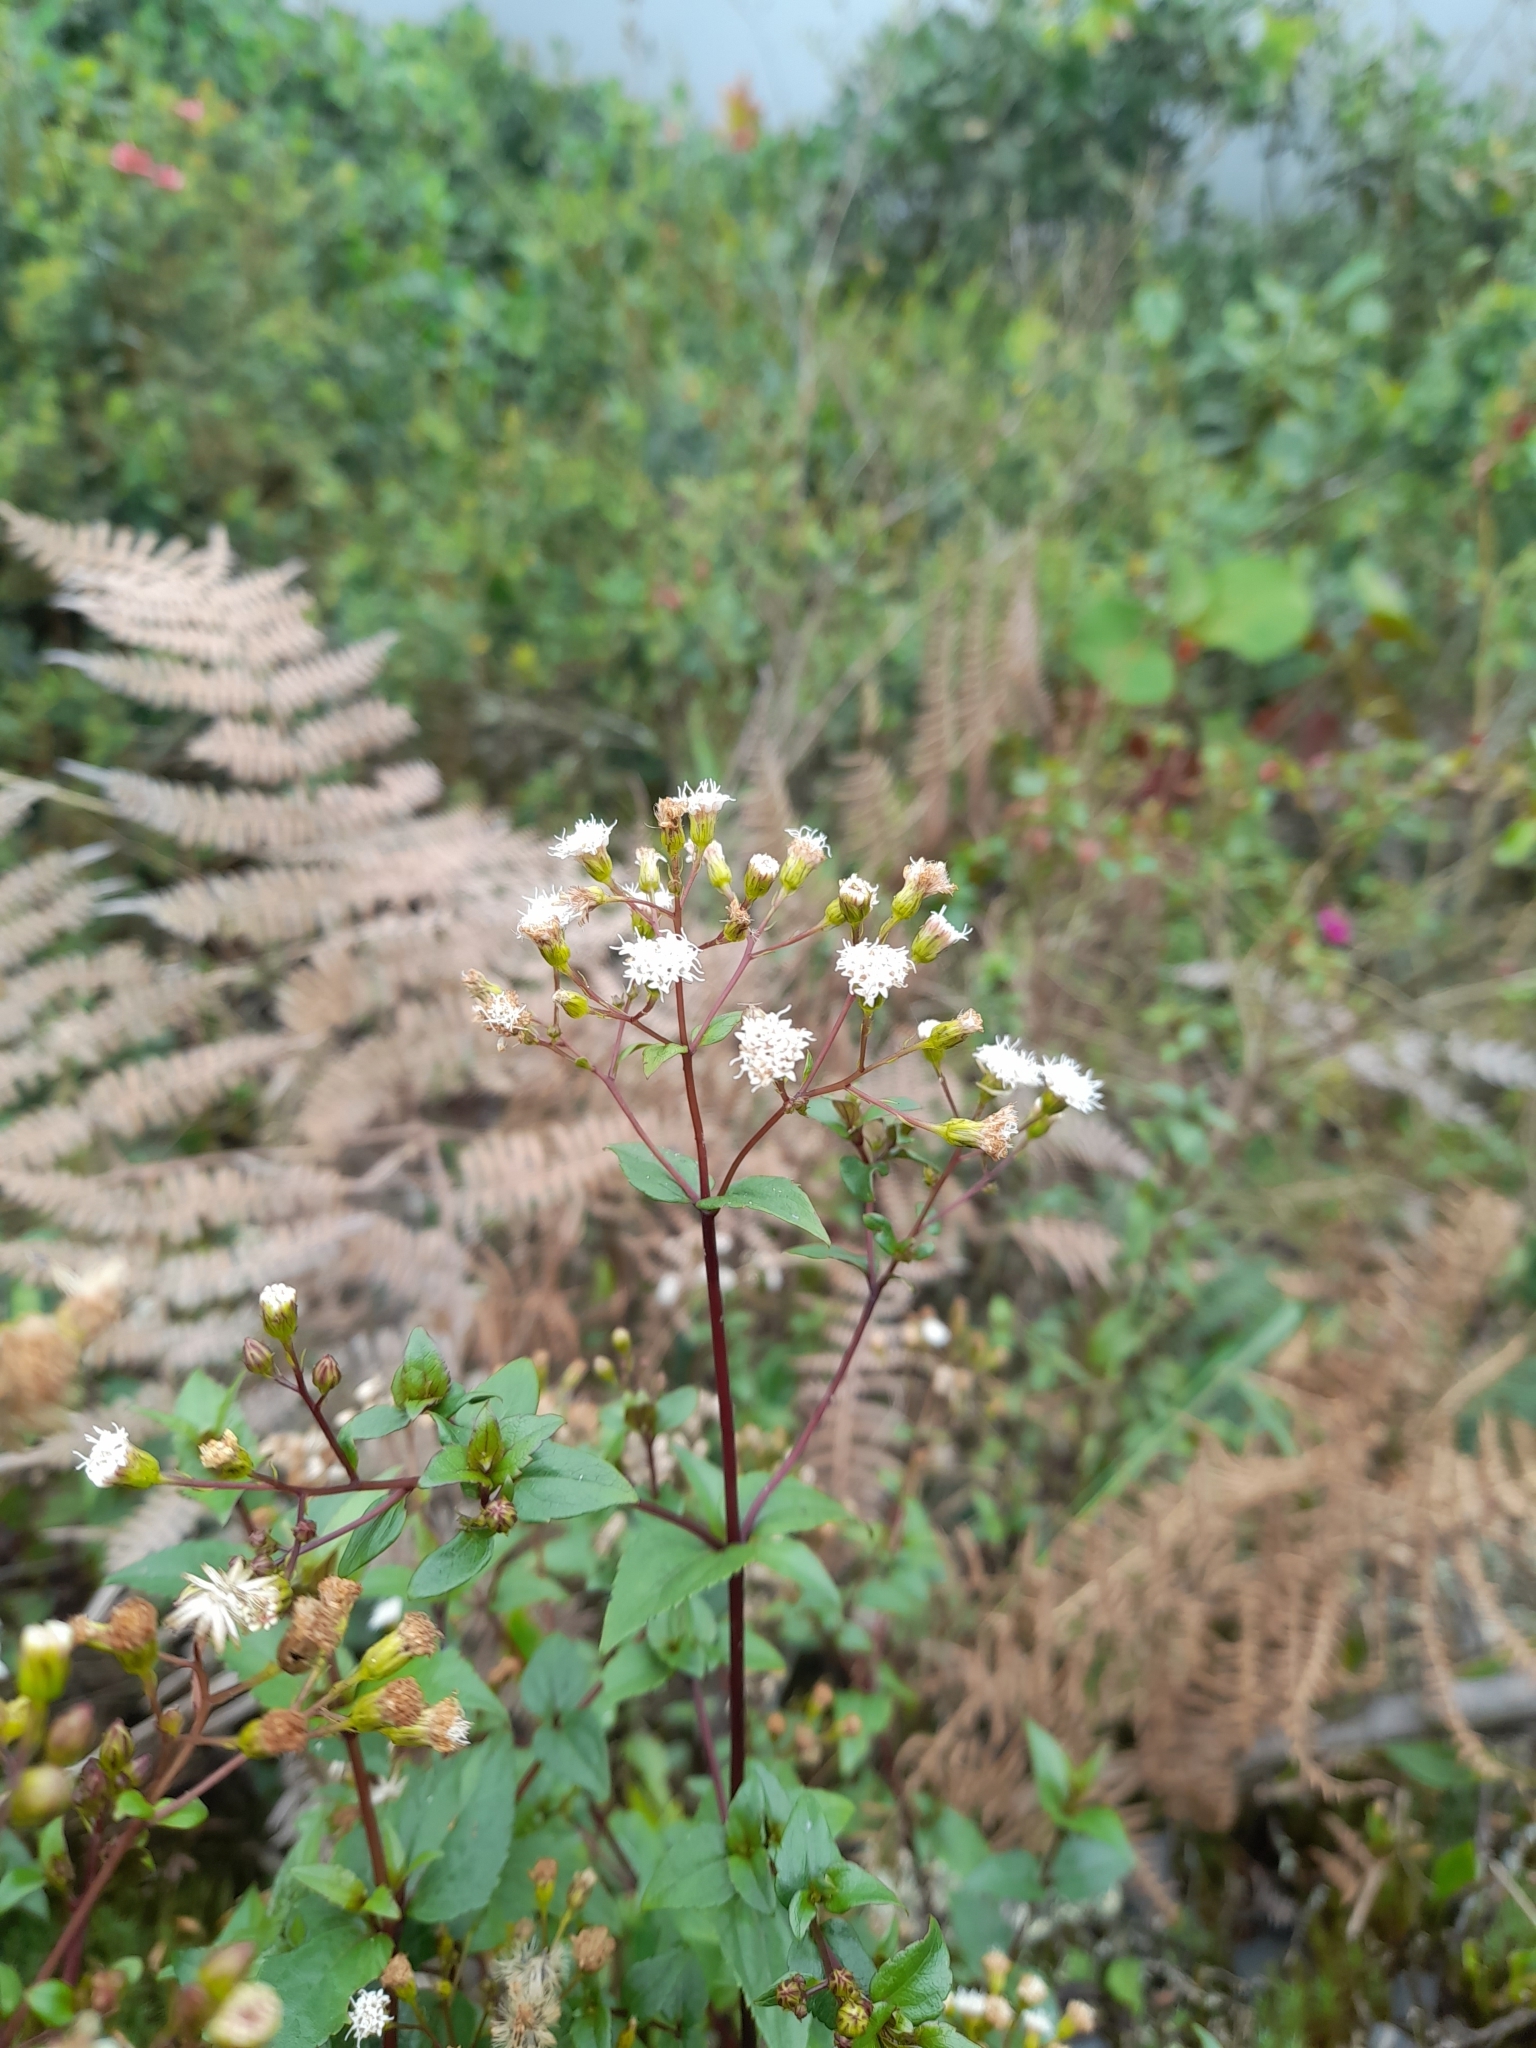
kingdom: Plantae
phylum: Tracheophyta
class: Magnoliopsida
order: Asterales
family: Asteraceae
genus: Ageratina
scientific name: Ageratina gracilis
